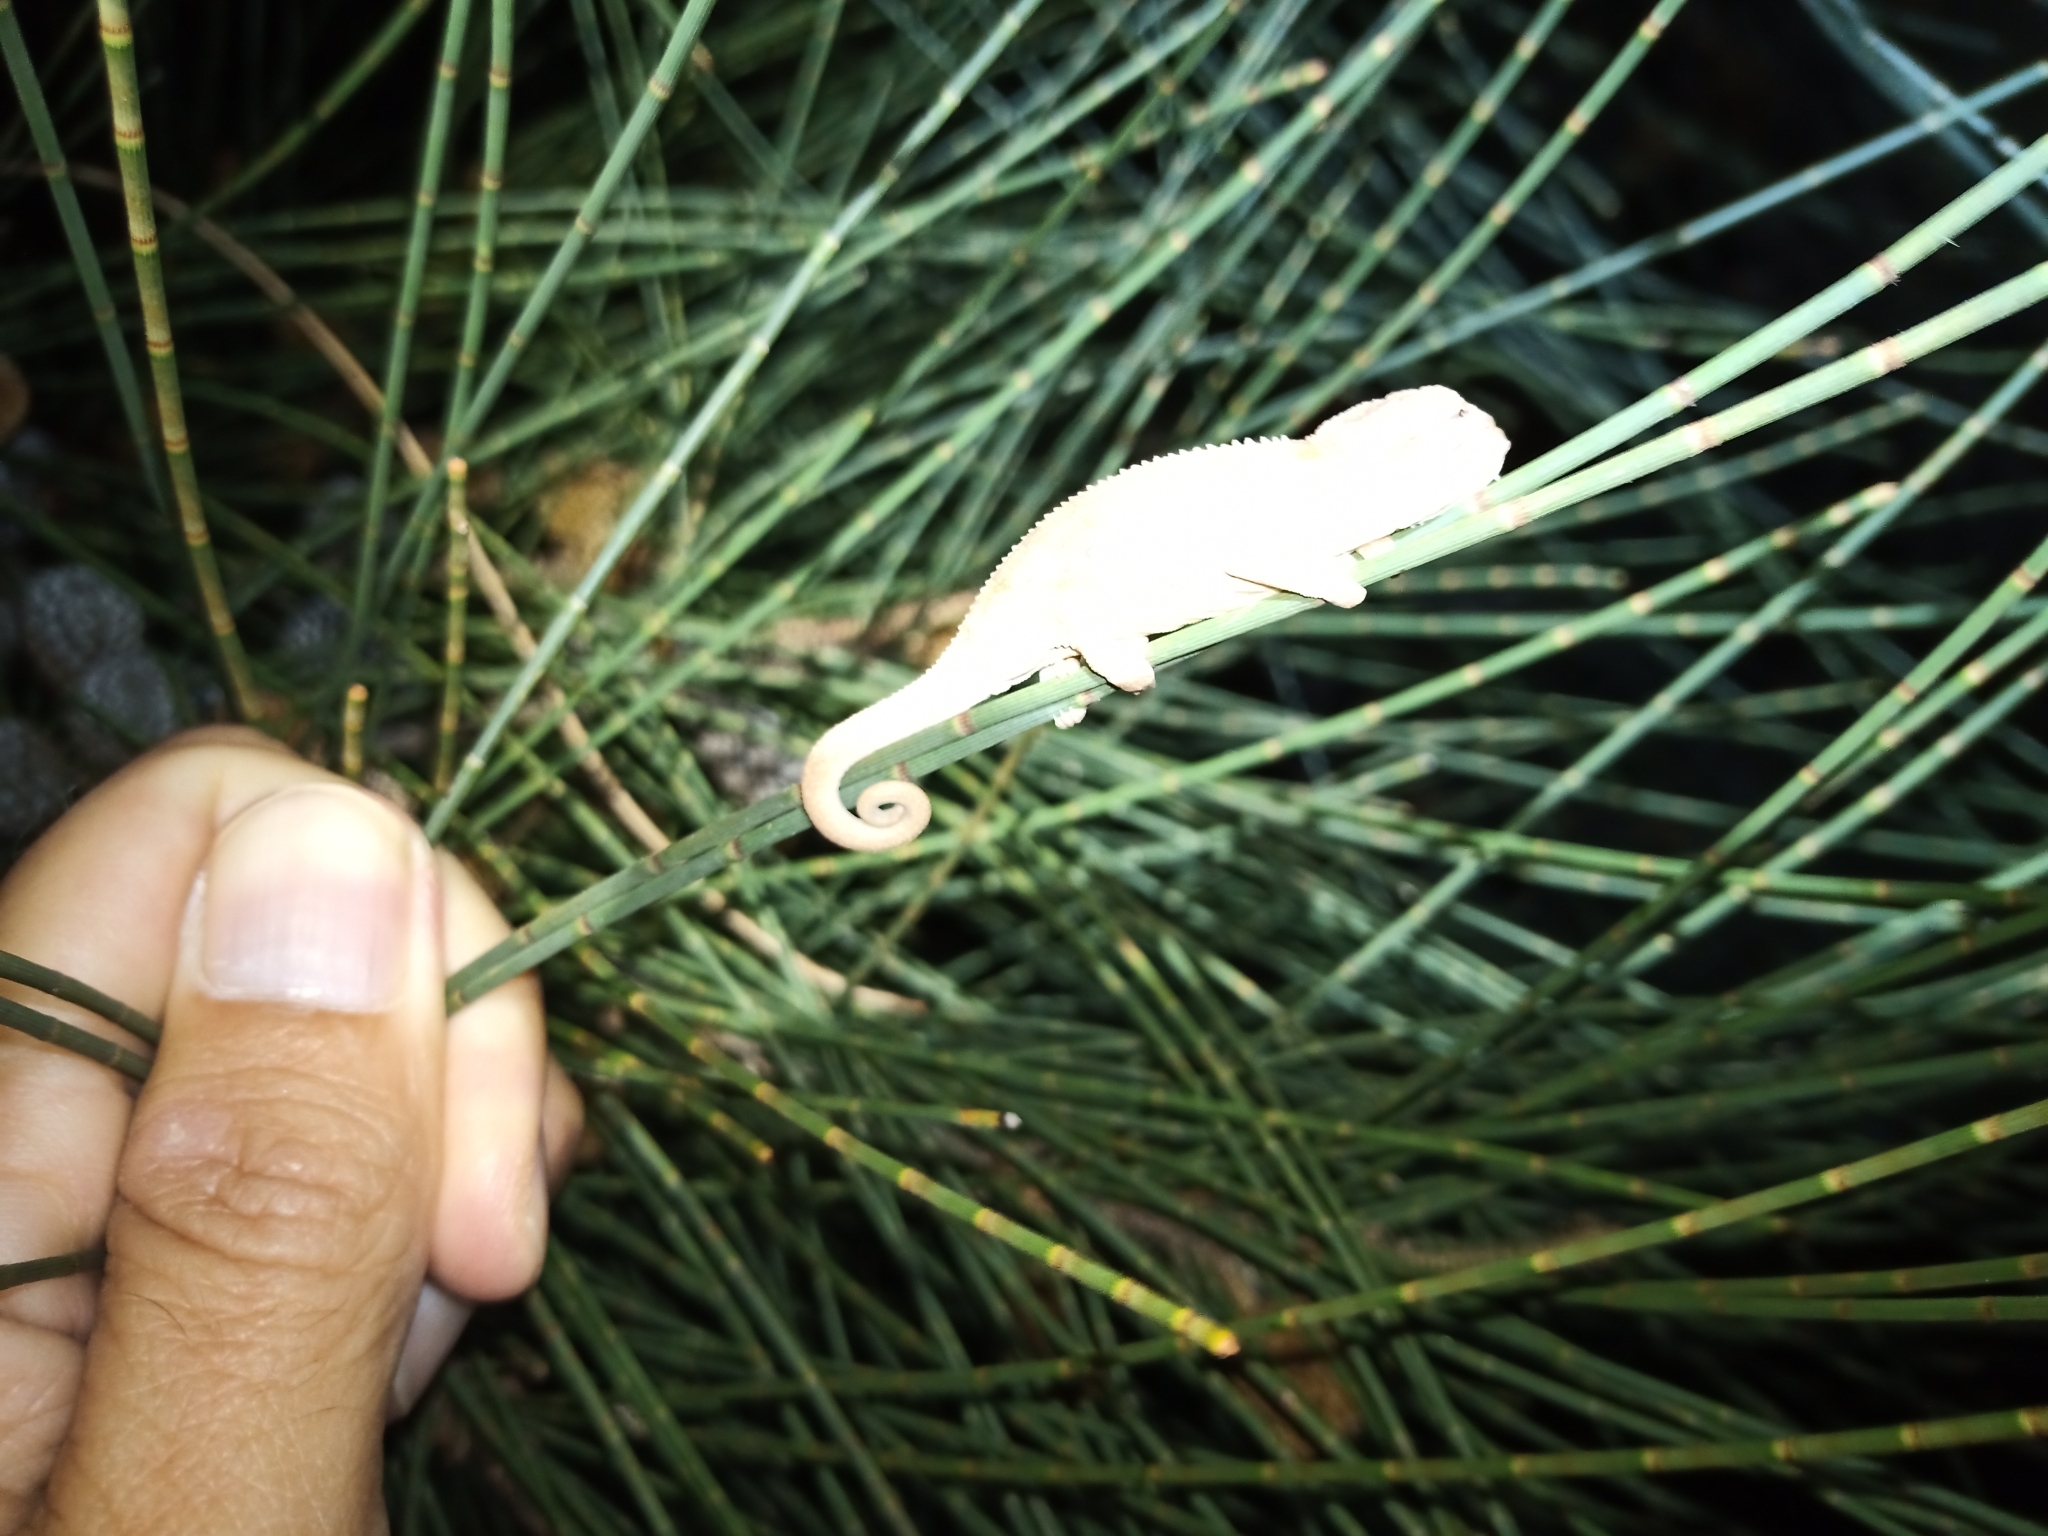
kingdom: Animalia
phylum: Chordata
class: Squamata
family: Chamaeleonidae
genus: Bradypodion
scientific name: Bradypodion pumilum
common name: Cape dwarf chameleon
